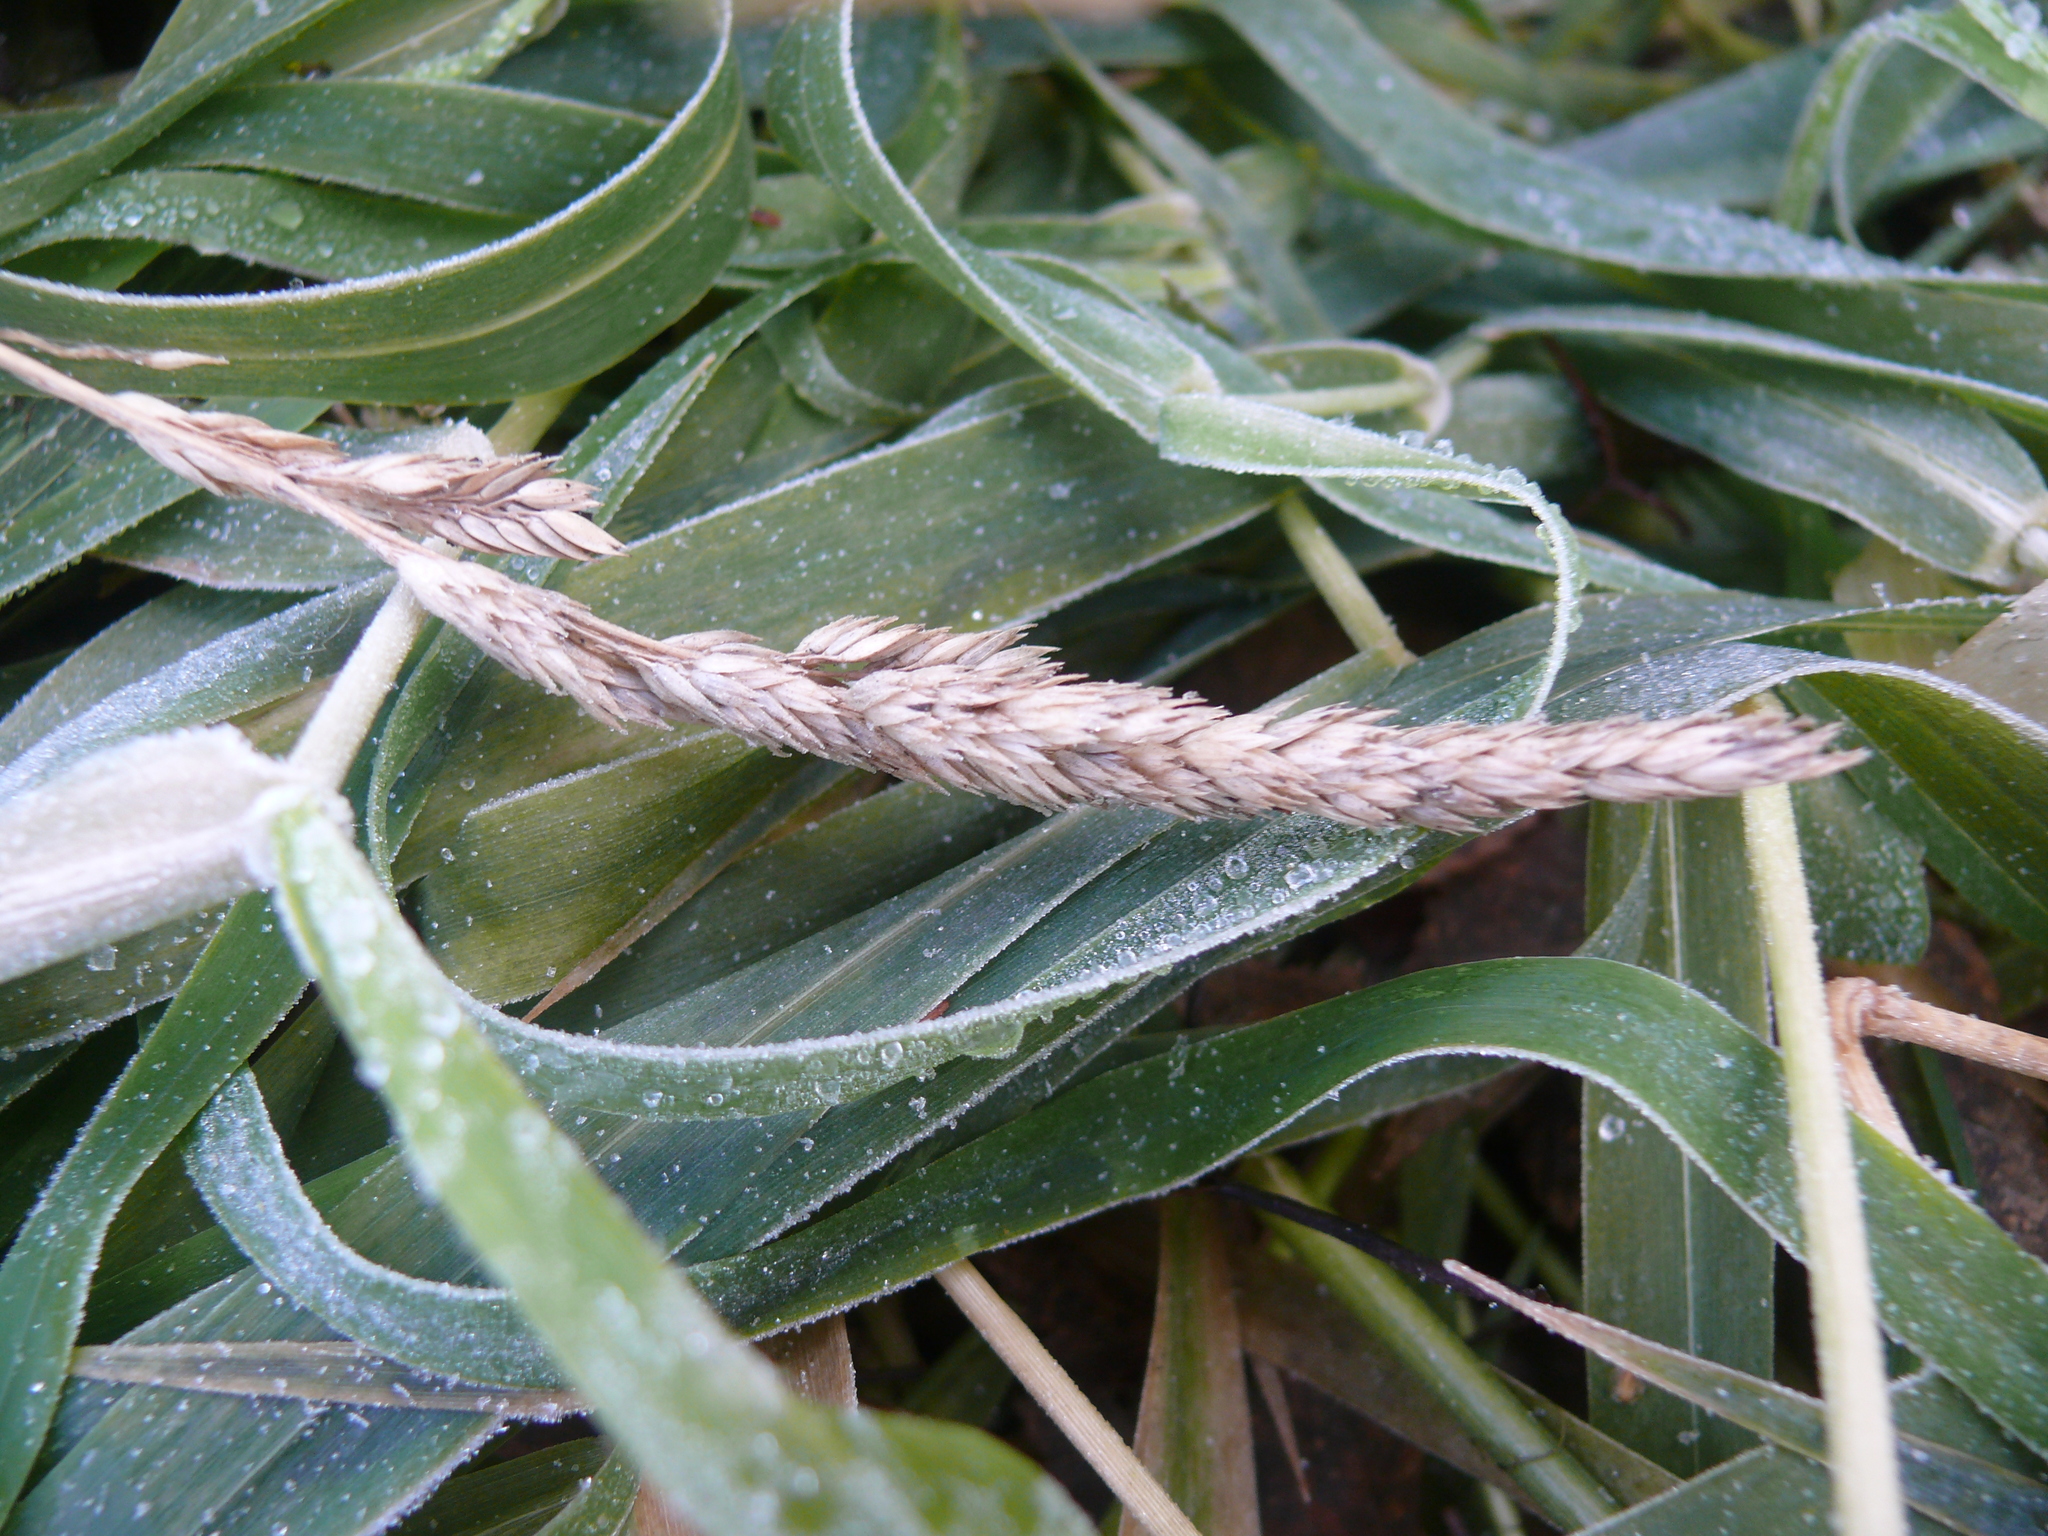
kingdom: Plantae
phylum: Tracheophyta
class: Liliopsida
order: Poales
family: Poaceae
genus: Phalaris
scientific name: Phalaris arundinacea
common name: Reed canary-grass
